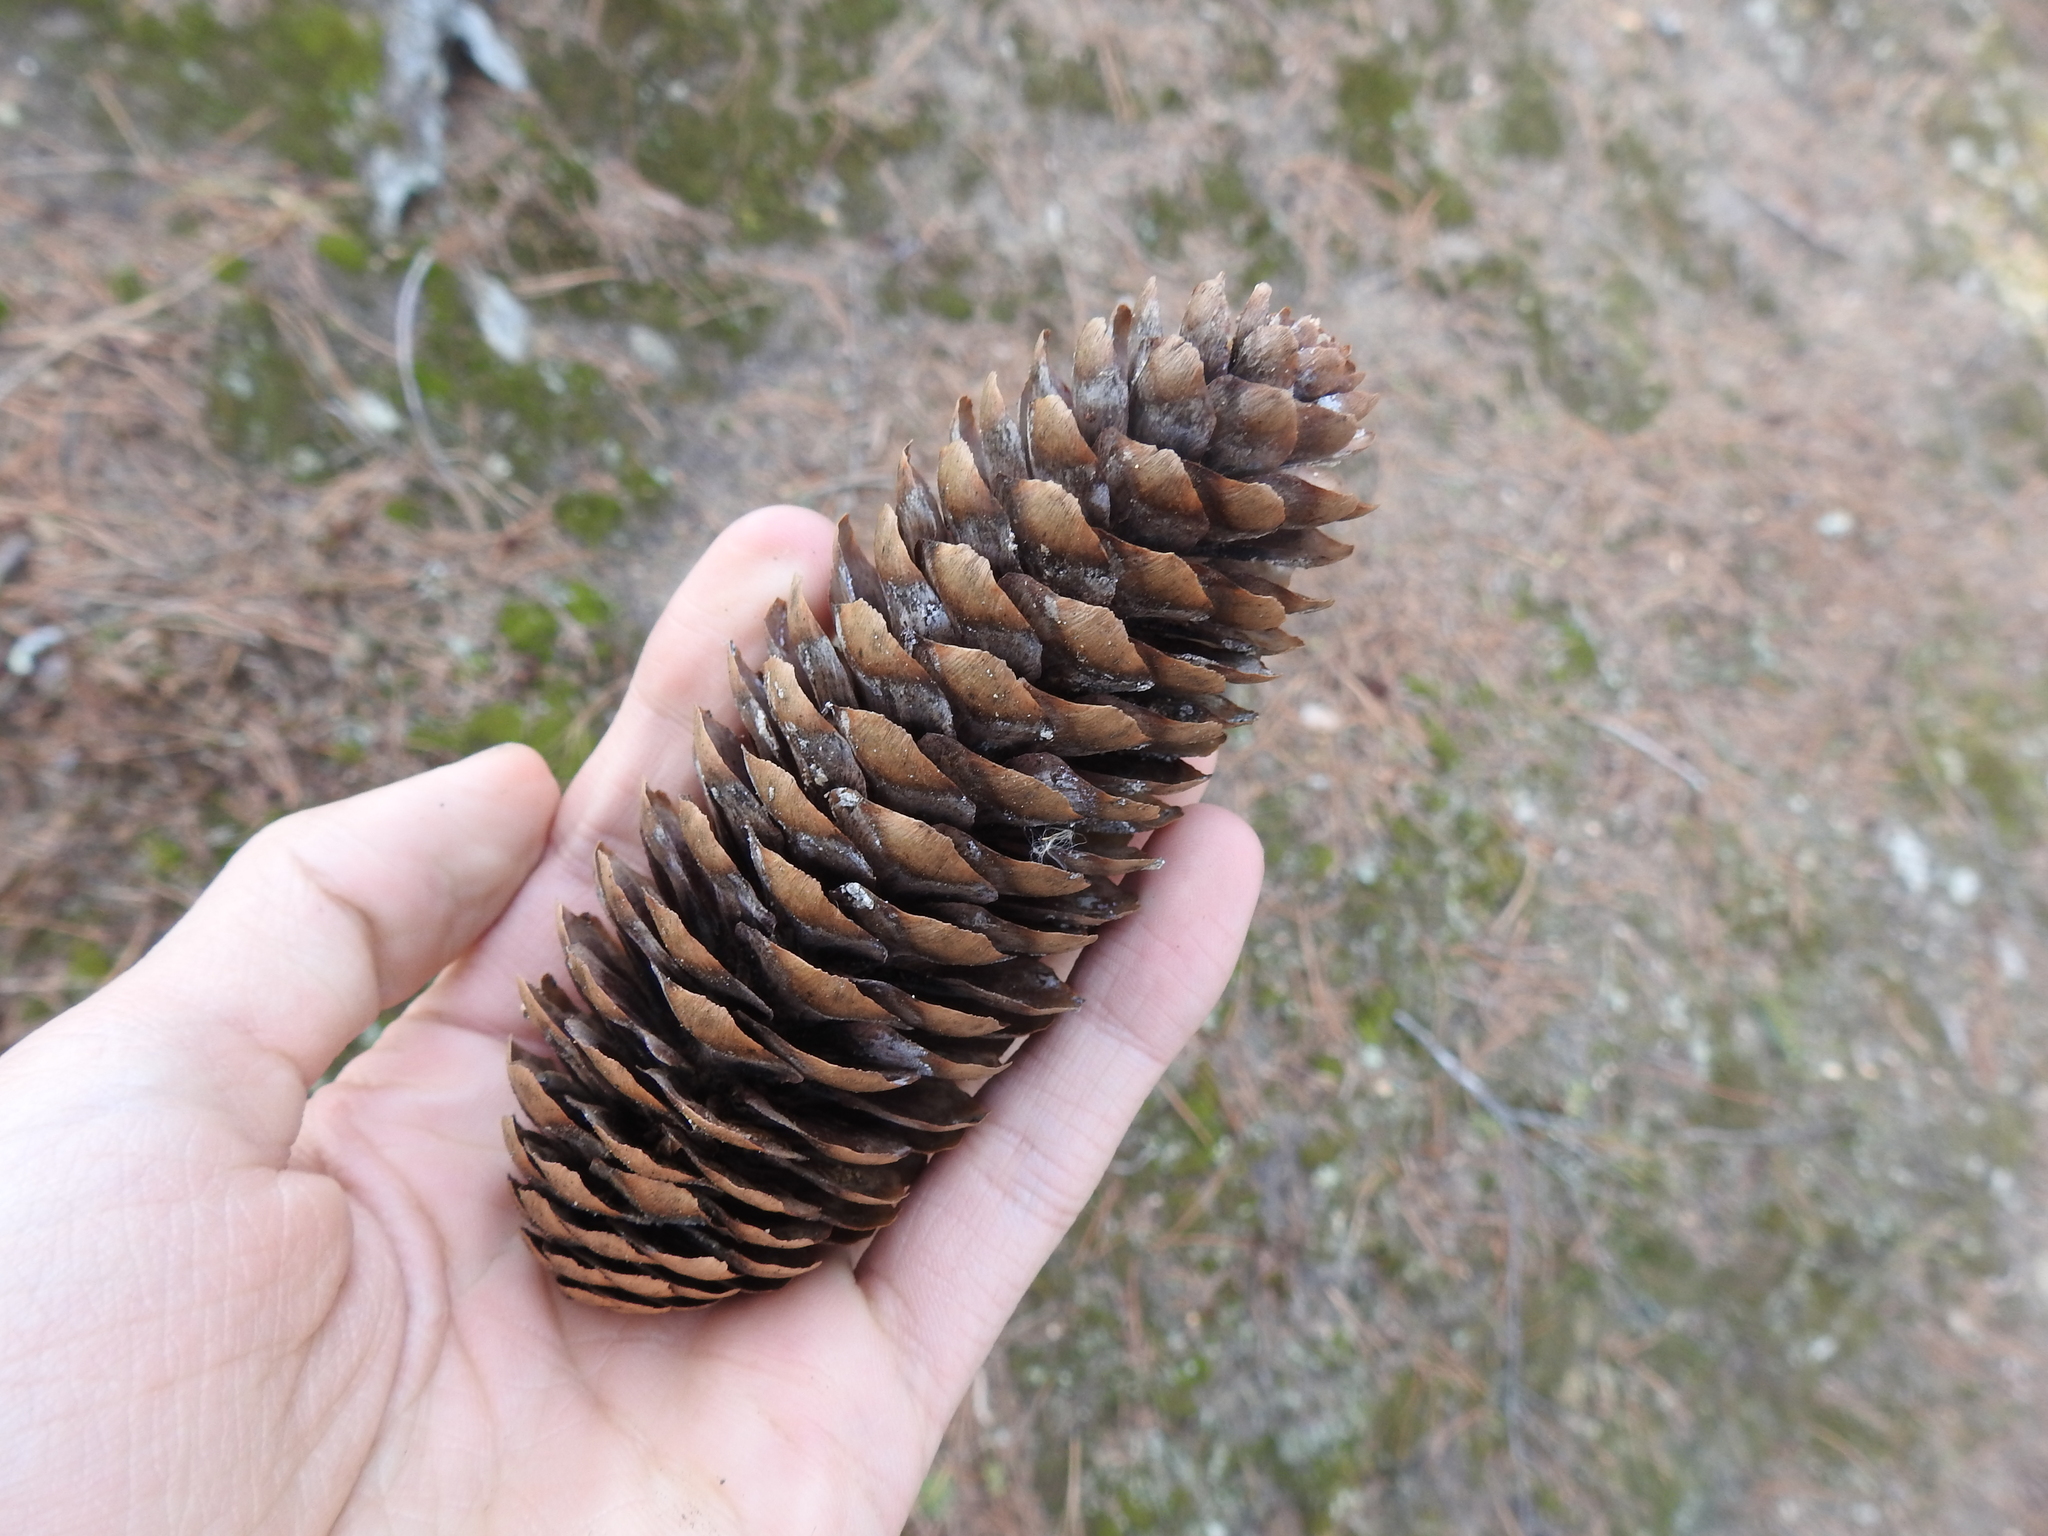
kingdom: Plantae
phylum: Tracheophyta
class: Pinopsida
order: Pinales
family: Pinaceae
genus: Picea
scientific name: Picea abies
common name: Norway spruce
